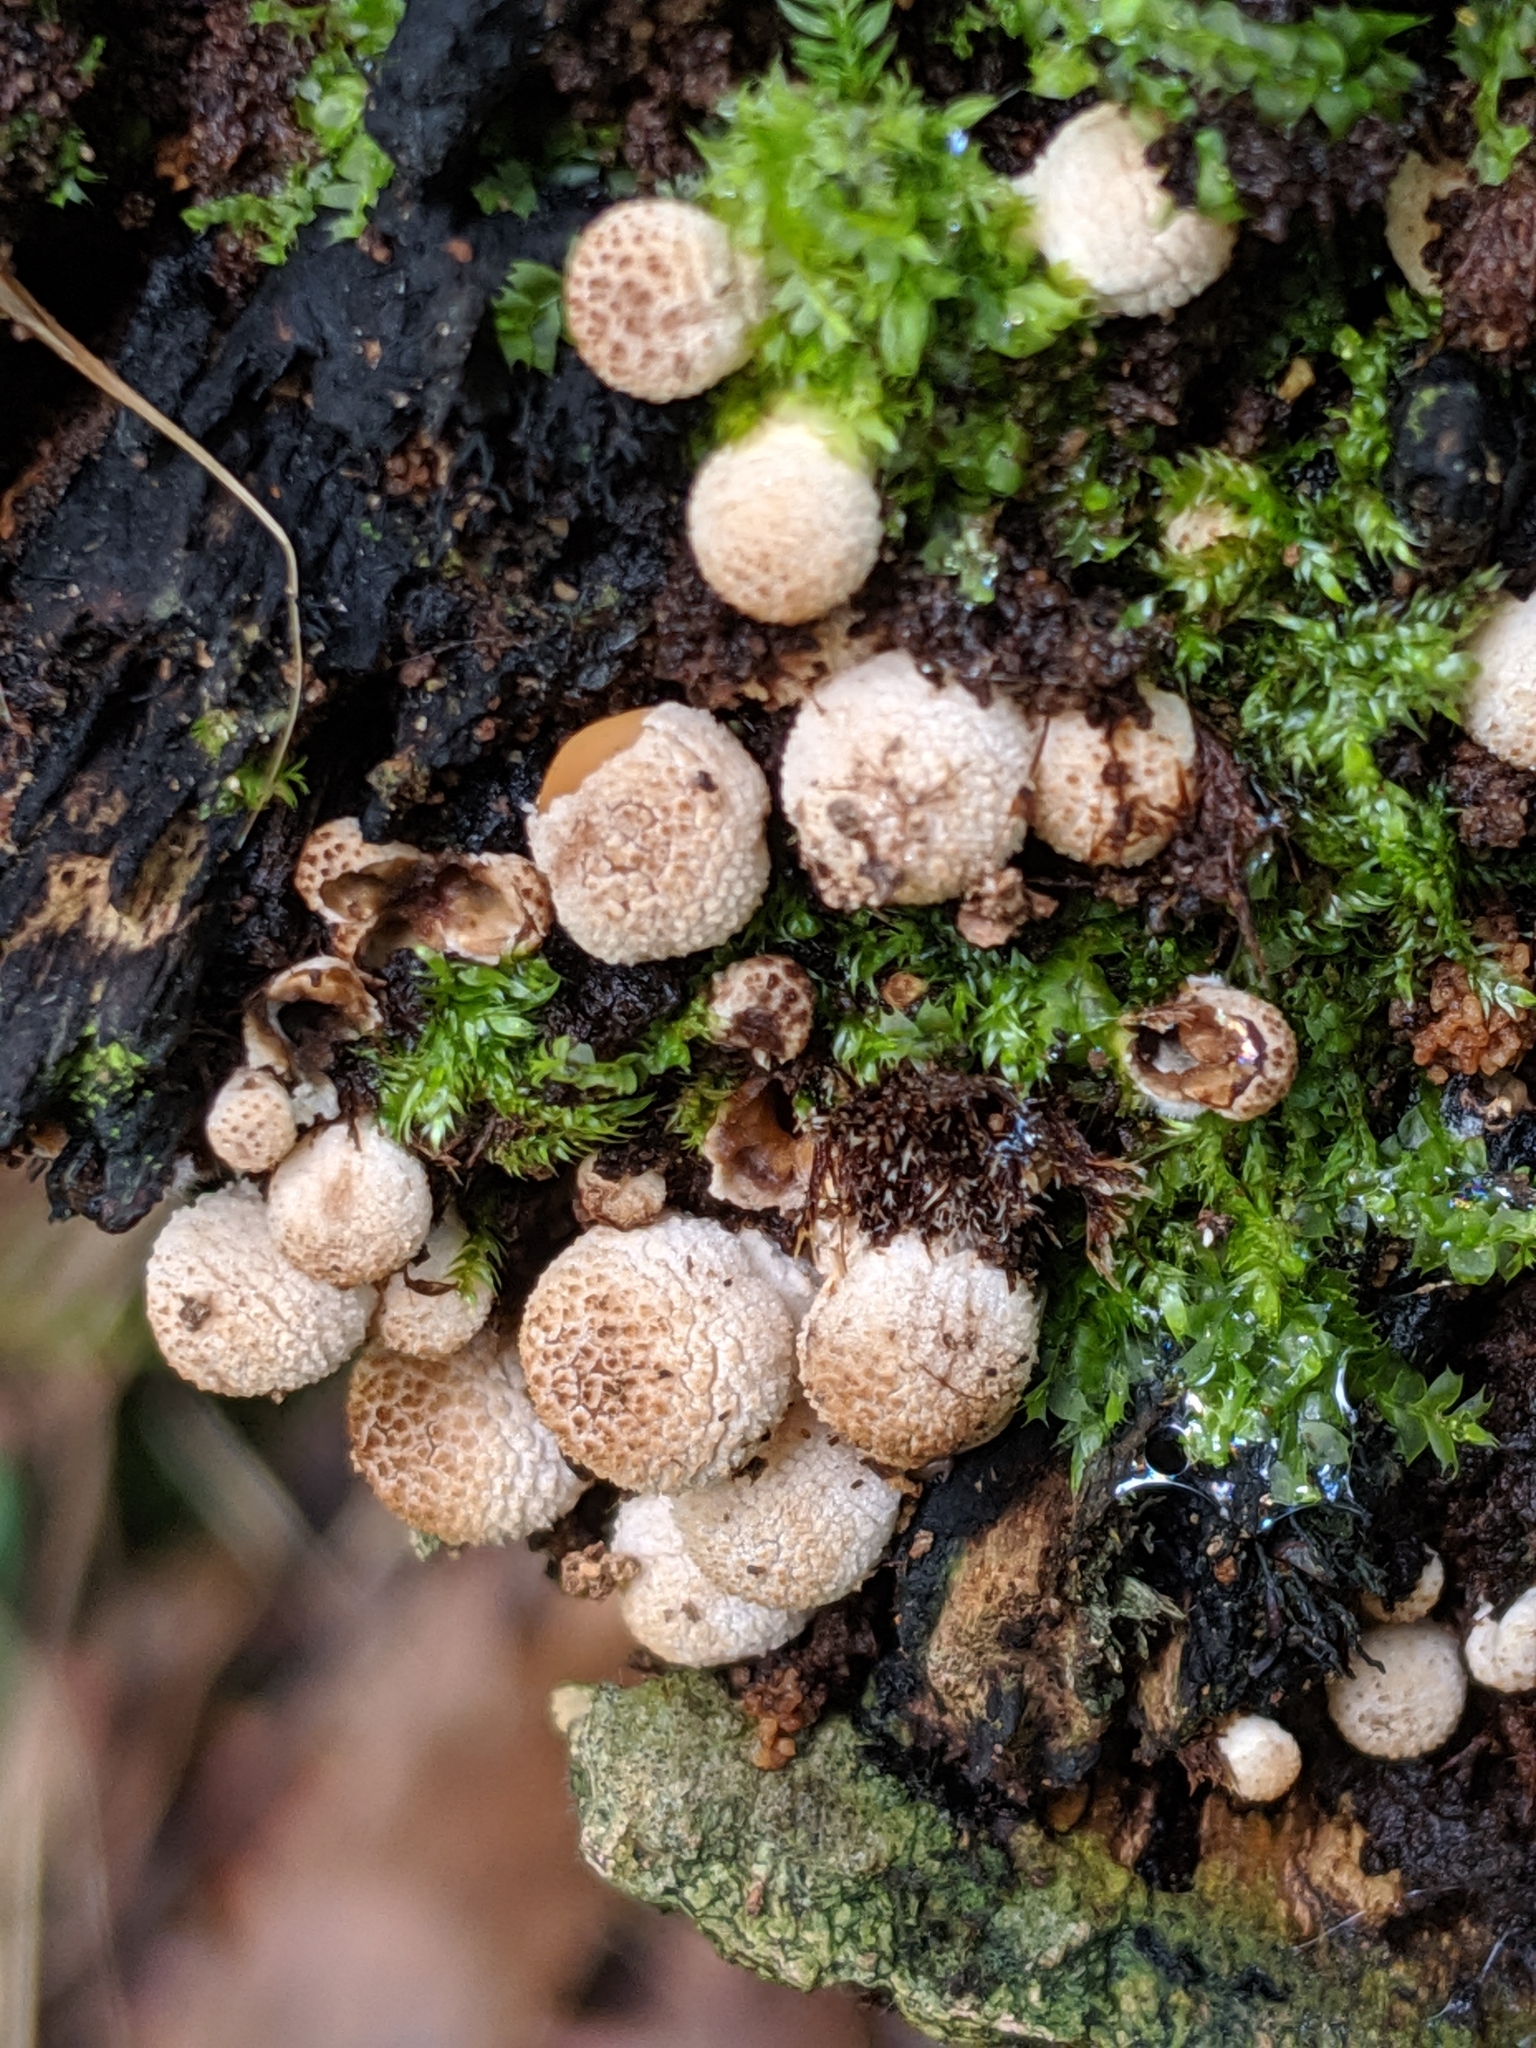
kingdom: Fungi
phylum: Basidiomycota
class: Agaricomycetes
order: Agaricales
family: Lycoperdaceae
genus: Apioperdon
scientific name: Apioperdon pyriforme
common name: Pear-shaped puffball
